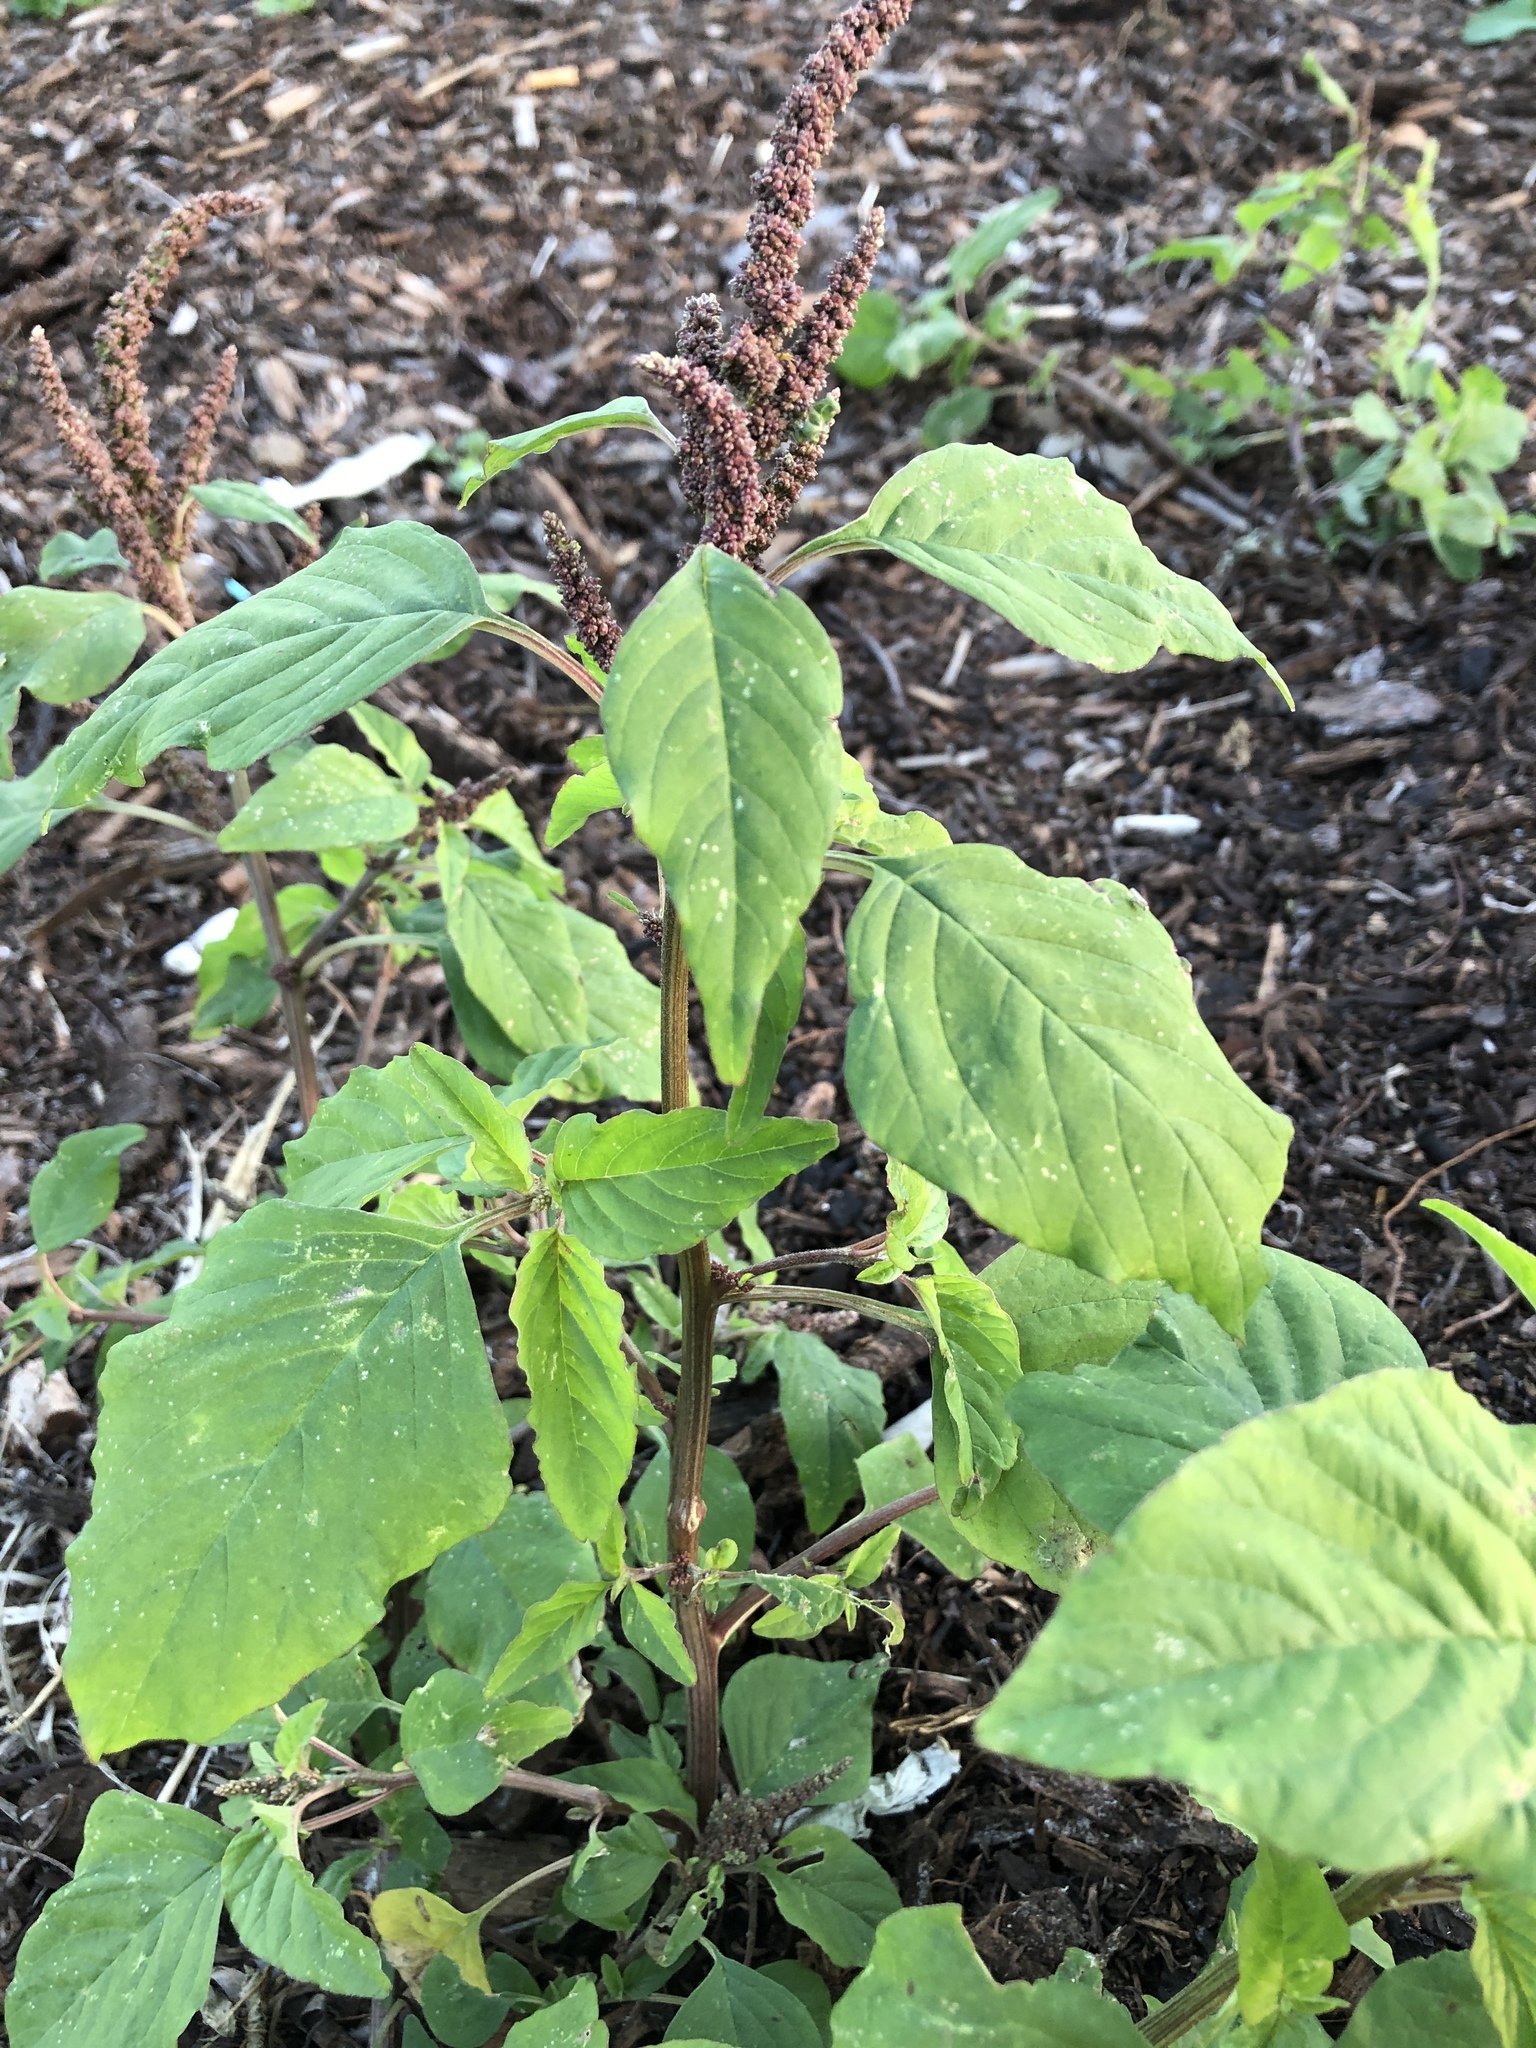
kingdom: Plantae
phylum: Tracheophyta
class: Magnoliopsida
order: Caryophyllales
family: Amaranthaceae
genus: Amaranthus
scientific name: Amaranthus viridis
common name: Slender amaranth
